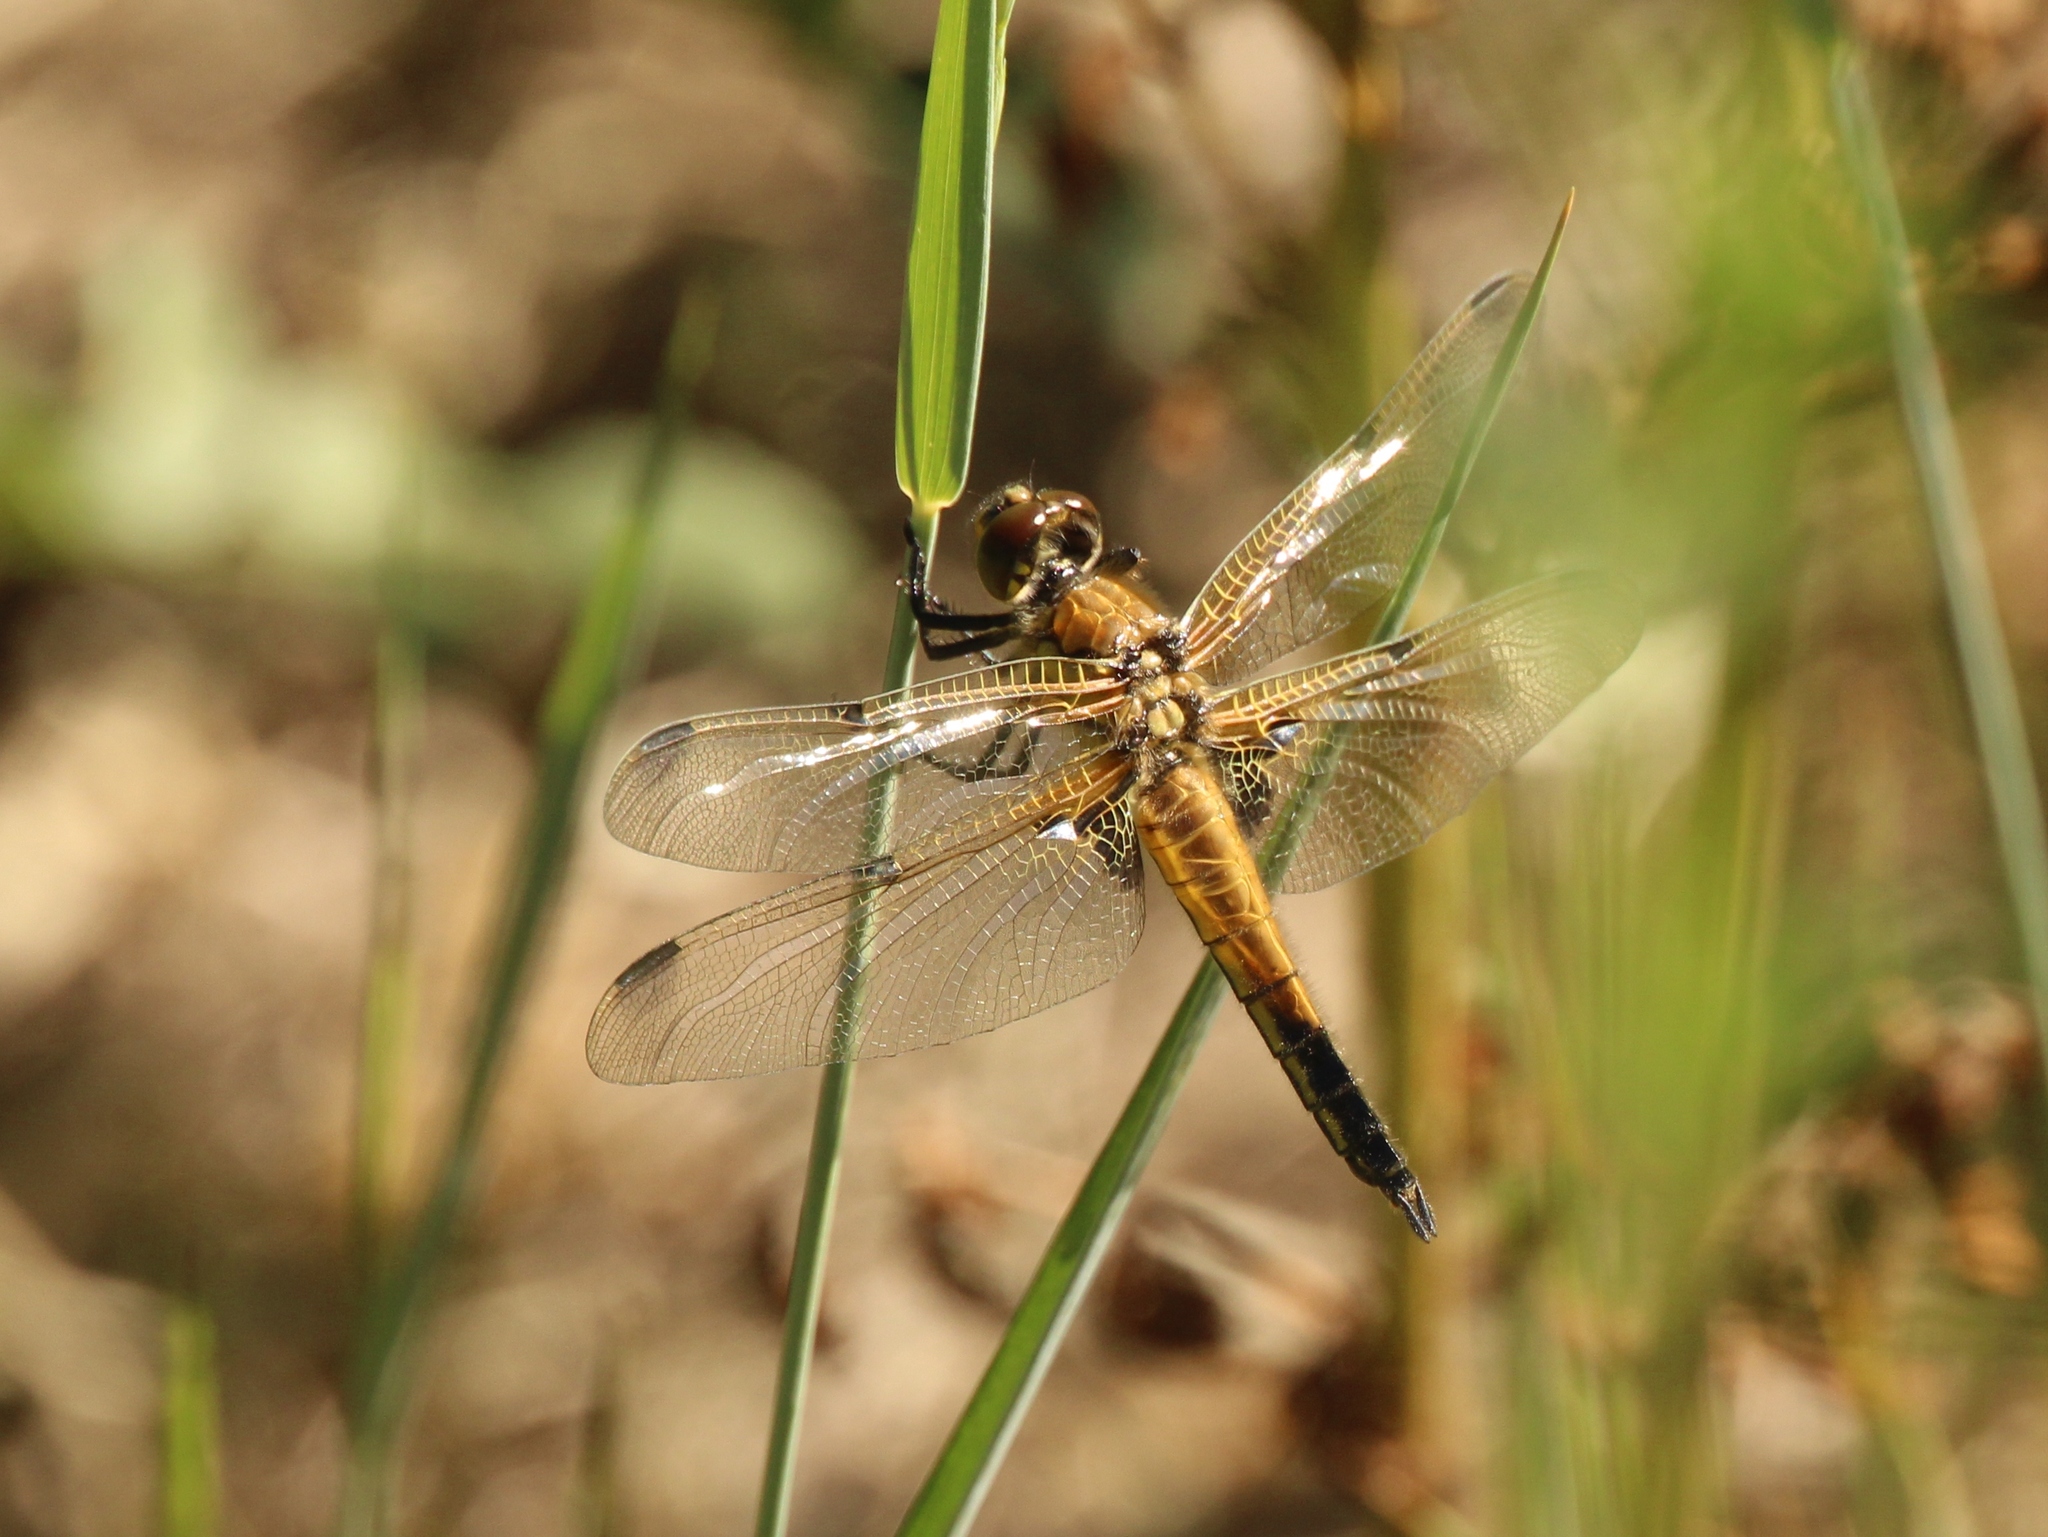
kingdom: Animalia
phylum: Arthropoda
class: Insecta
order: Odonata
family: Libellulidae
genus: Libellula
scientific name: Libellula quadrimaculata
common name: Four-spotted chaser
